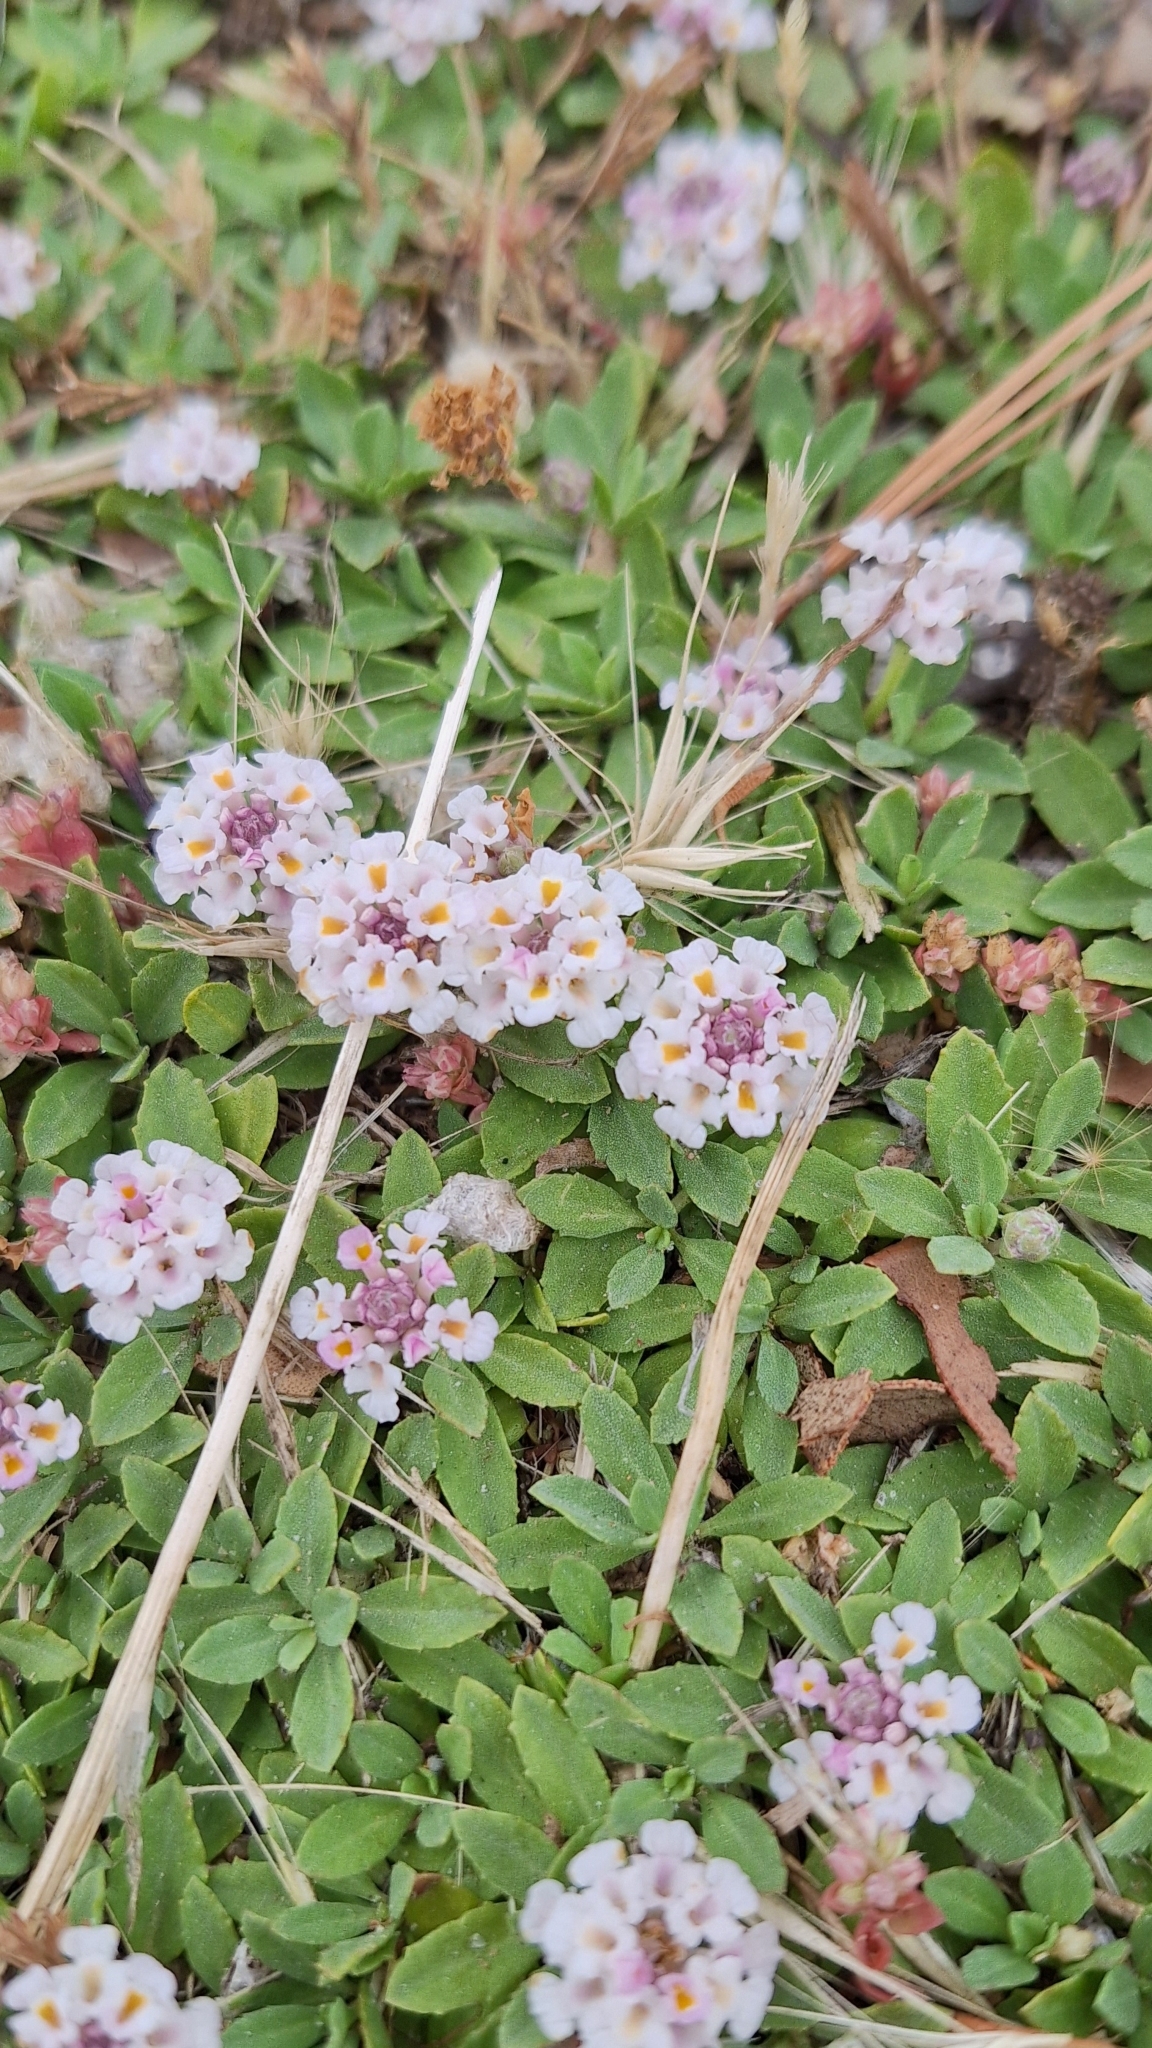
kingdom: Plantae
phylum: Tracheophyta
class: Magnoliopsida
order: Lamiales
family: Verbenaceae
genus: Phyla
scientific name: Phyla nodiflora
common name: Frogfruit
